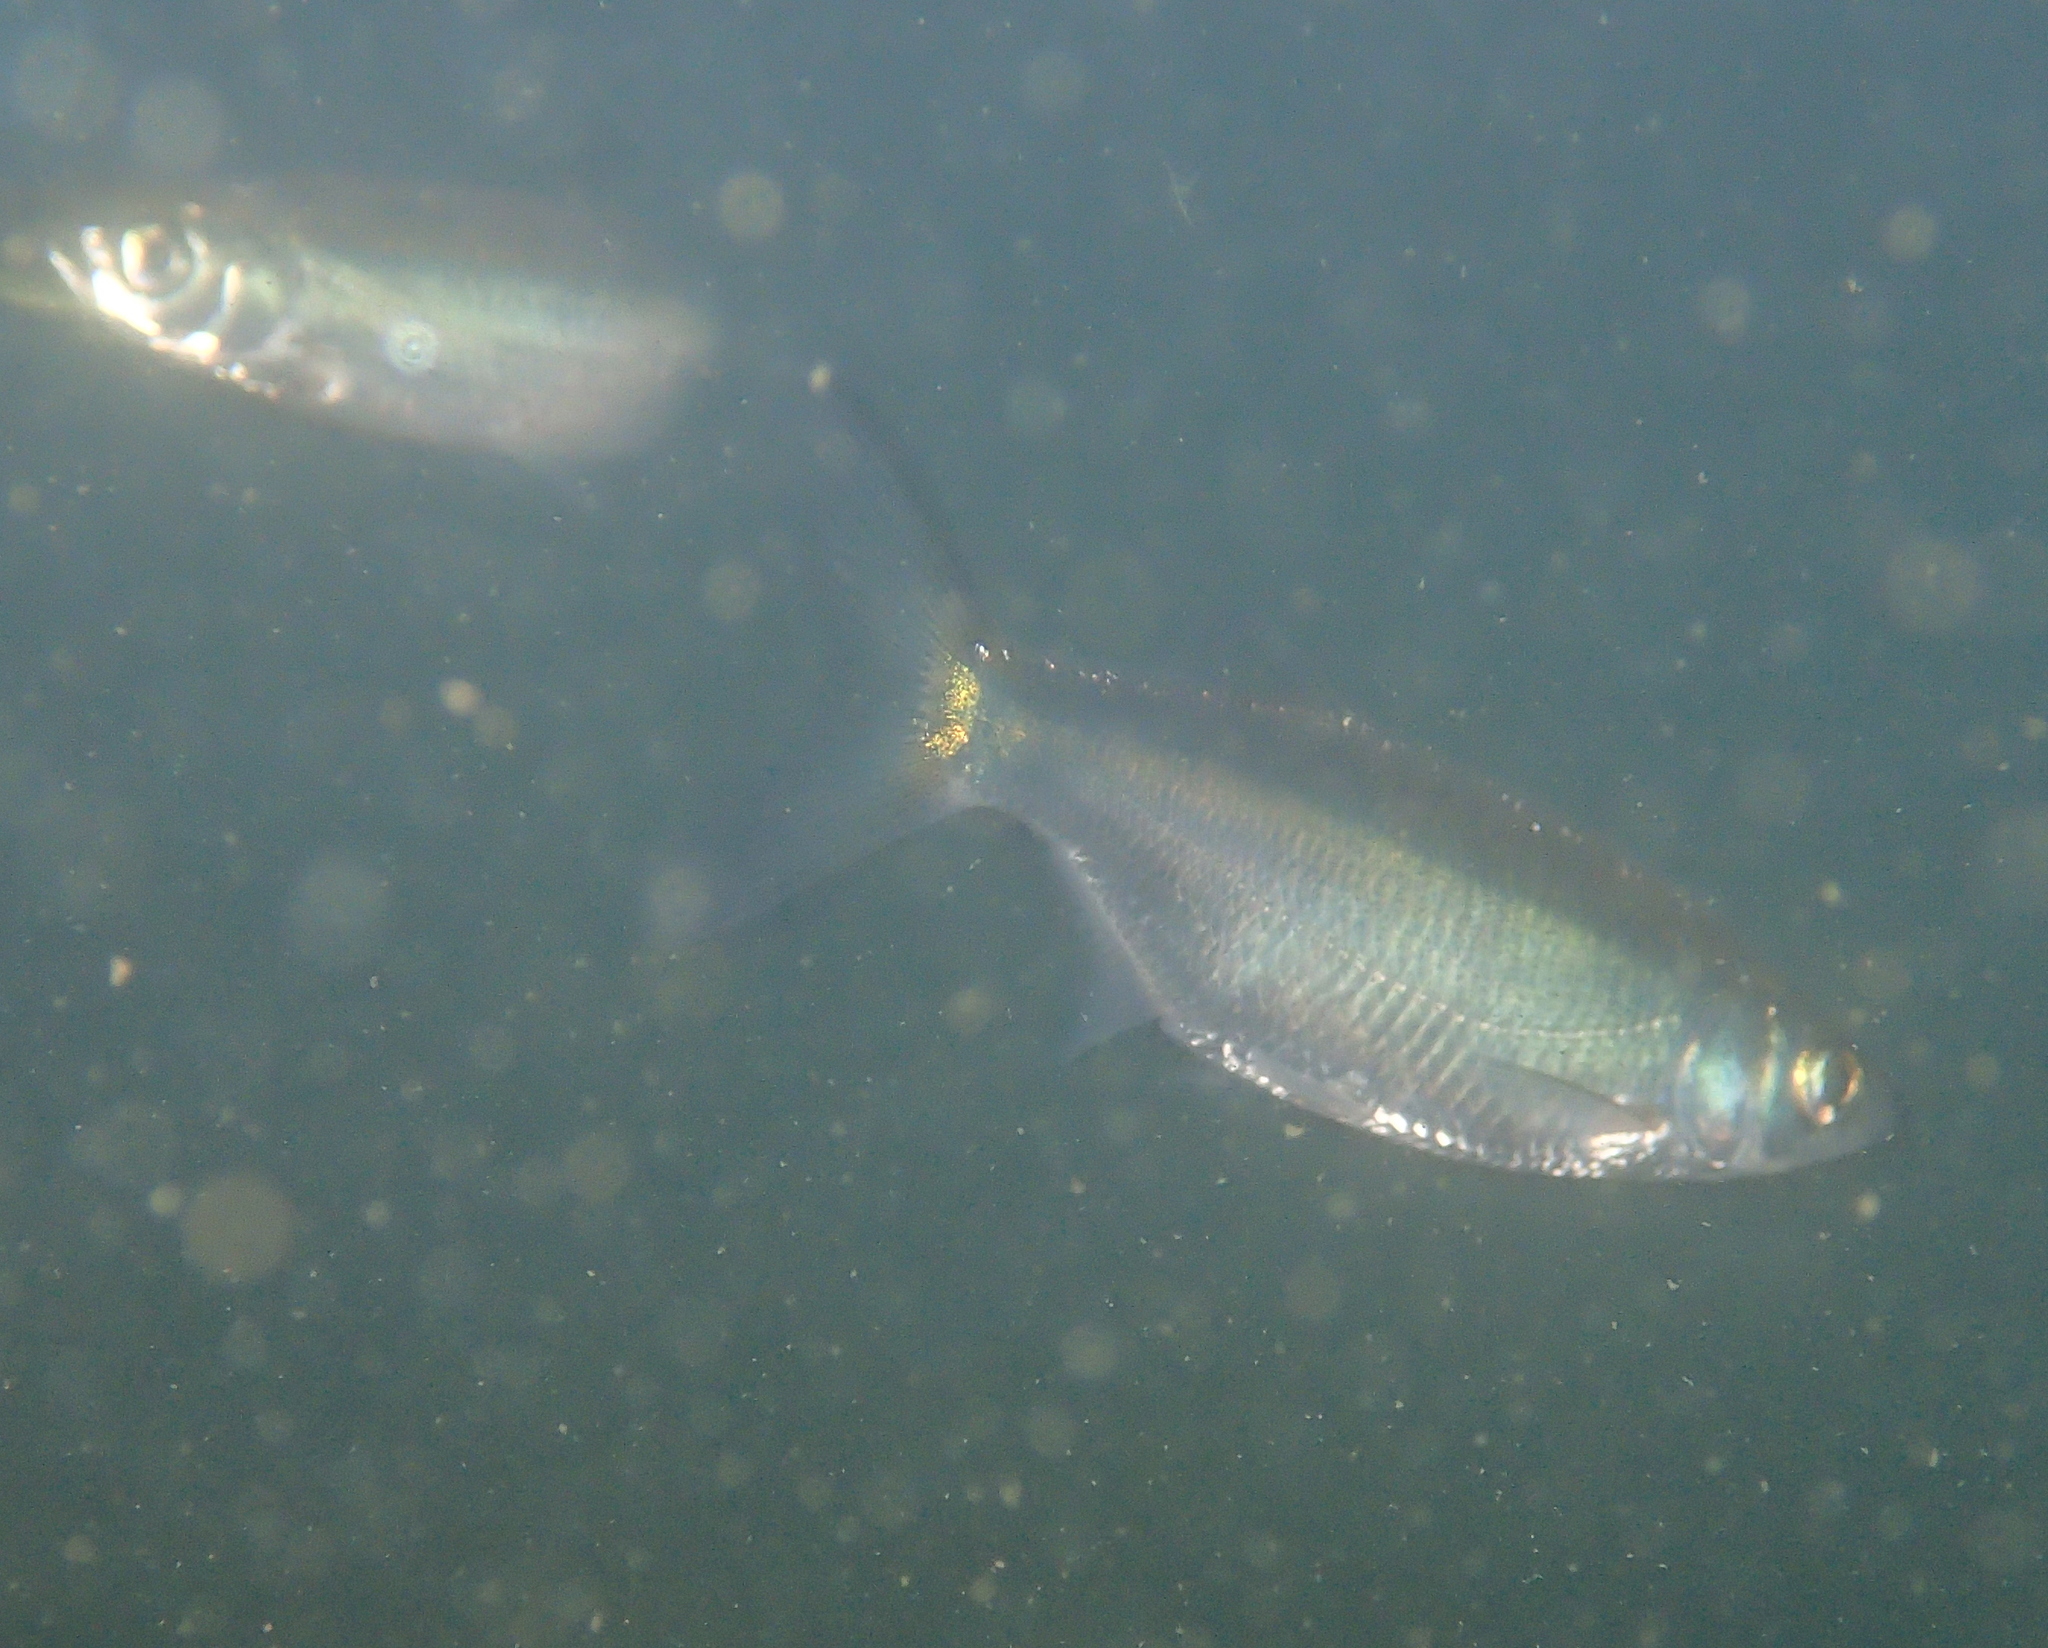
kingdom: Animalia
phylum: Chordata
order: Cypriniformes
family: Cyprinidae
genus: Alburnus
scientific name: Alburnus alburnus
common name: Bleak
